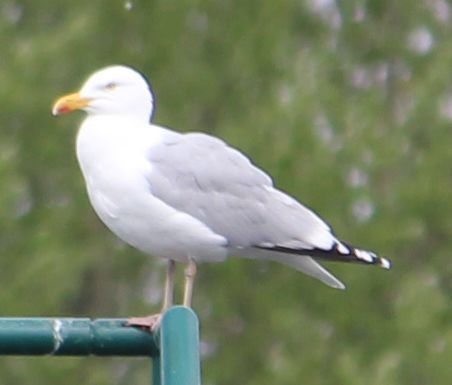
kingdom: Animalia
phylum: Chordata
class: Aves
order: Charadriiformes
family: Laridae
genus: Larus
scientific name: Larus argentatus
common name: Herring gull
